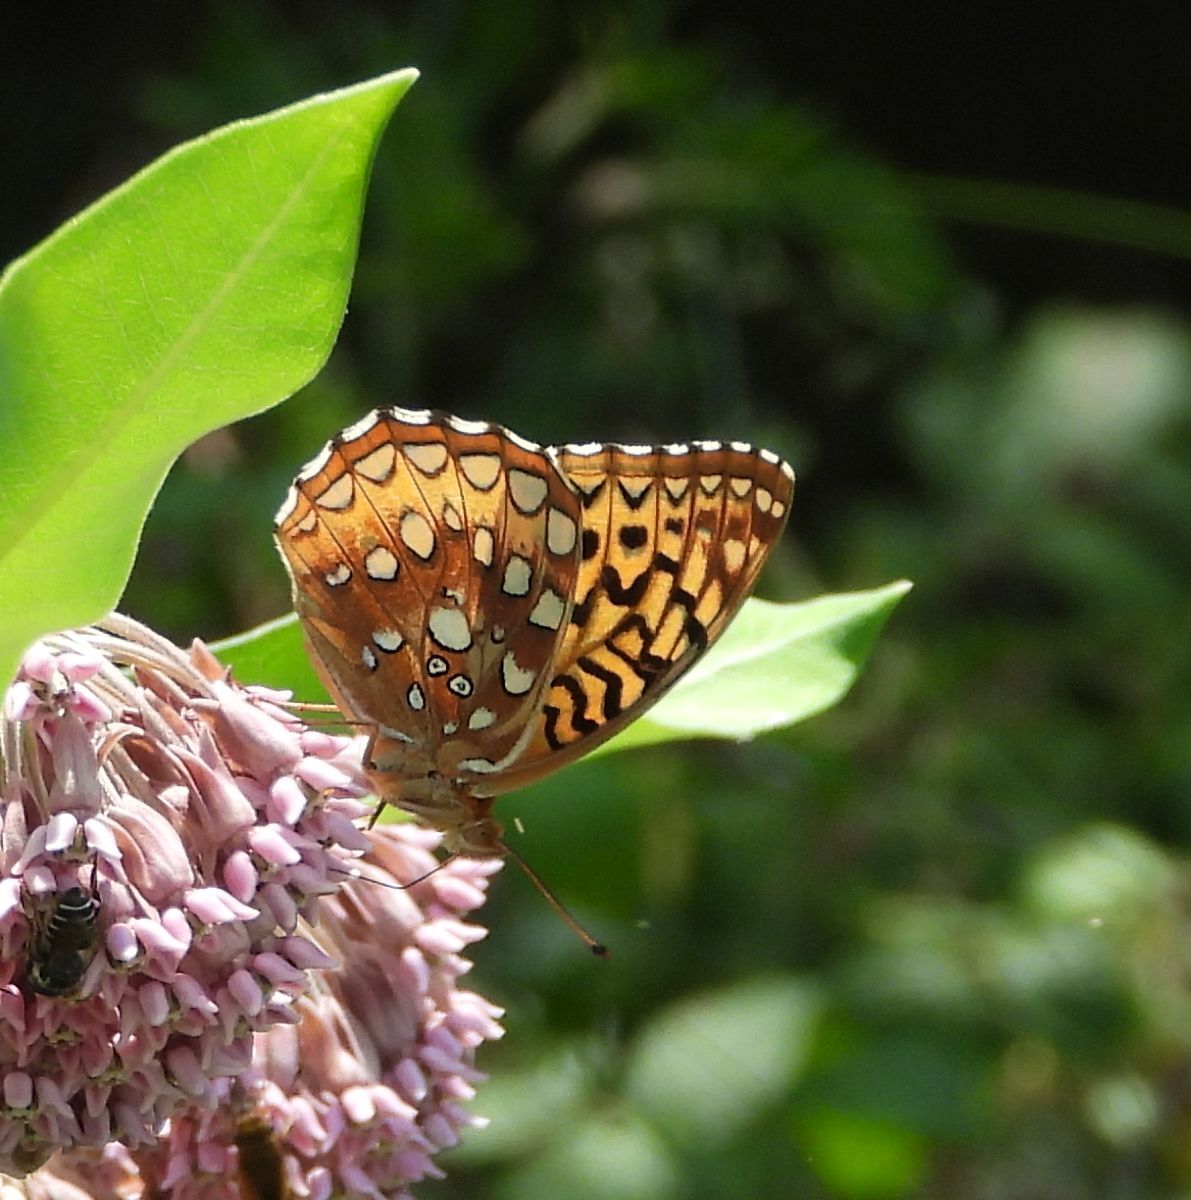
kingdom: Animalia
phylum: Arthropoda
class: Insecta
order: Lepidoptera
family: Nymphalidae
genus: Speyeria
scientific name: Speyeria cybele
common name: Great spangled fritillary
